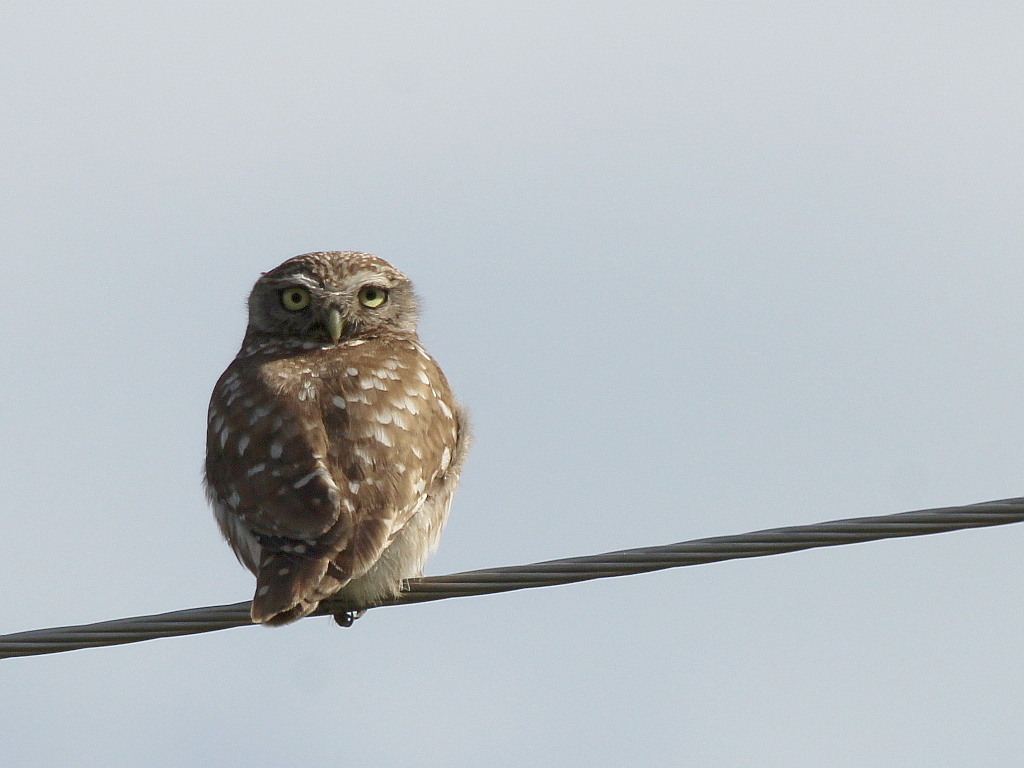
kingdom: Animalia
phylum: Chordata
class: Aves
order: Strigiformes
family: Strigidae
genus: Athene
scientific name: Athene noctua
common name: Little owl
